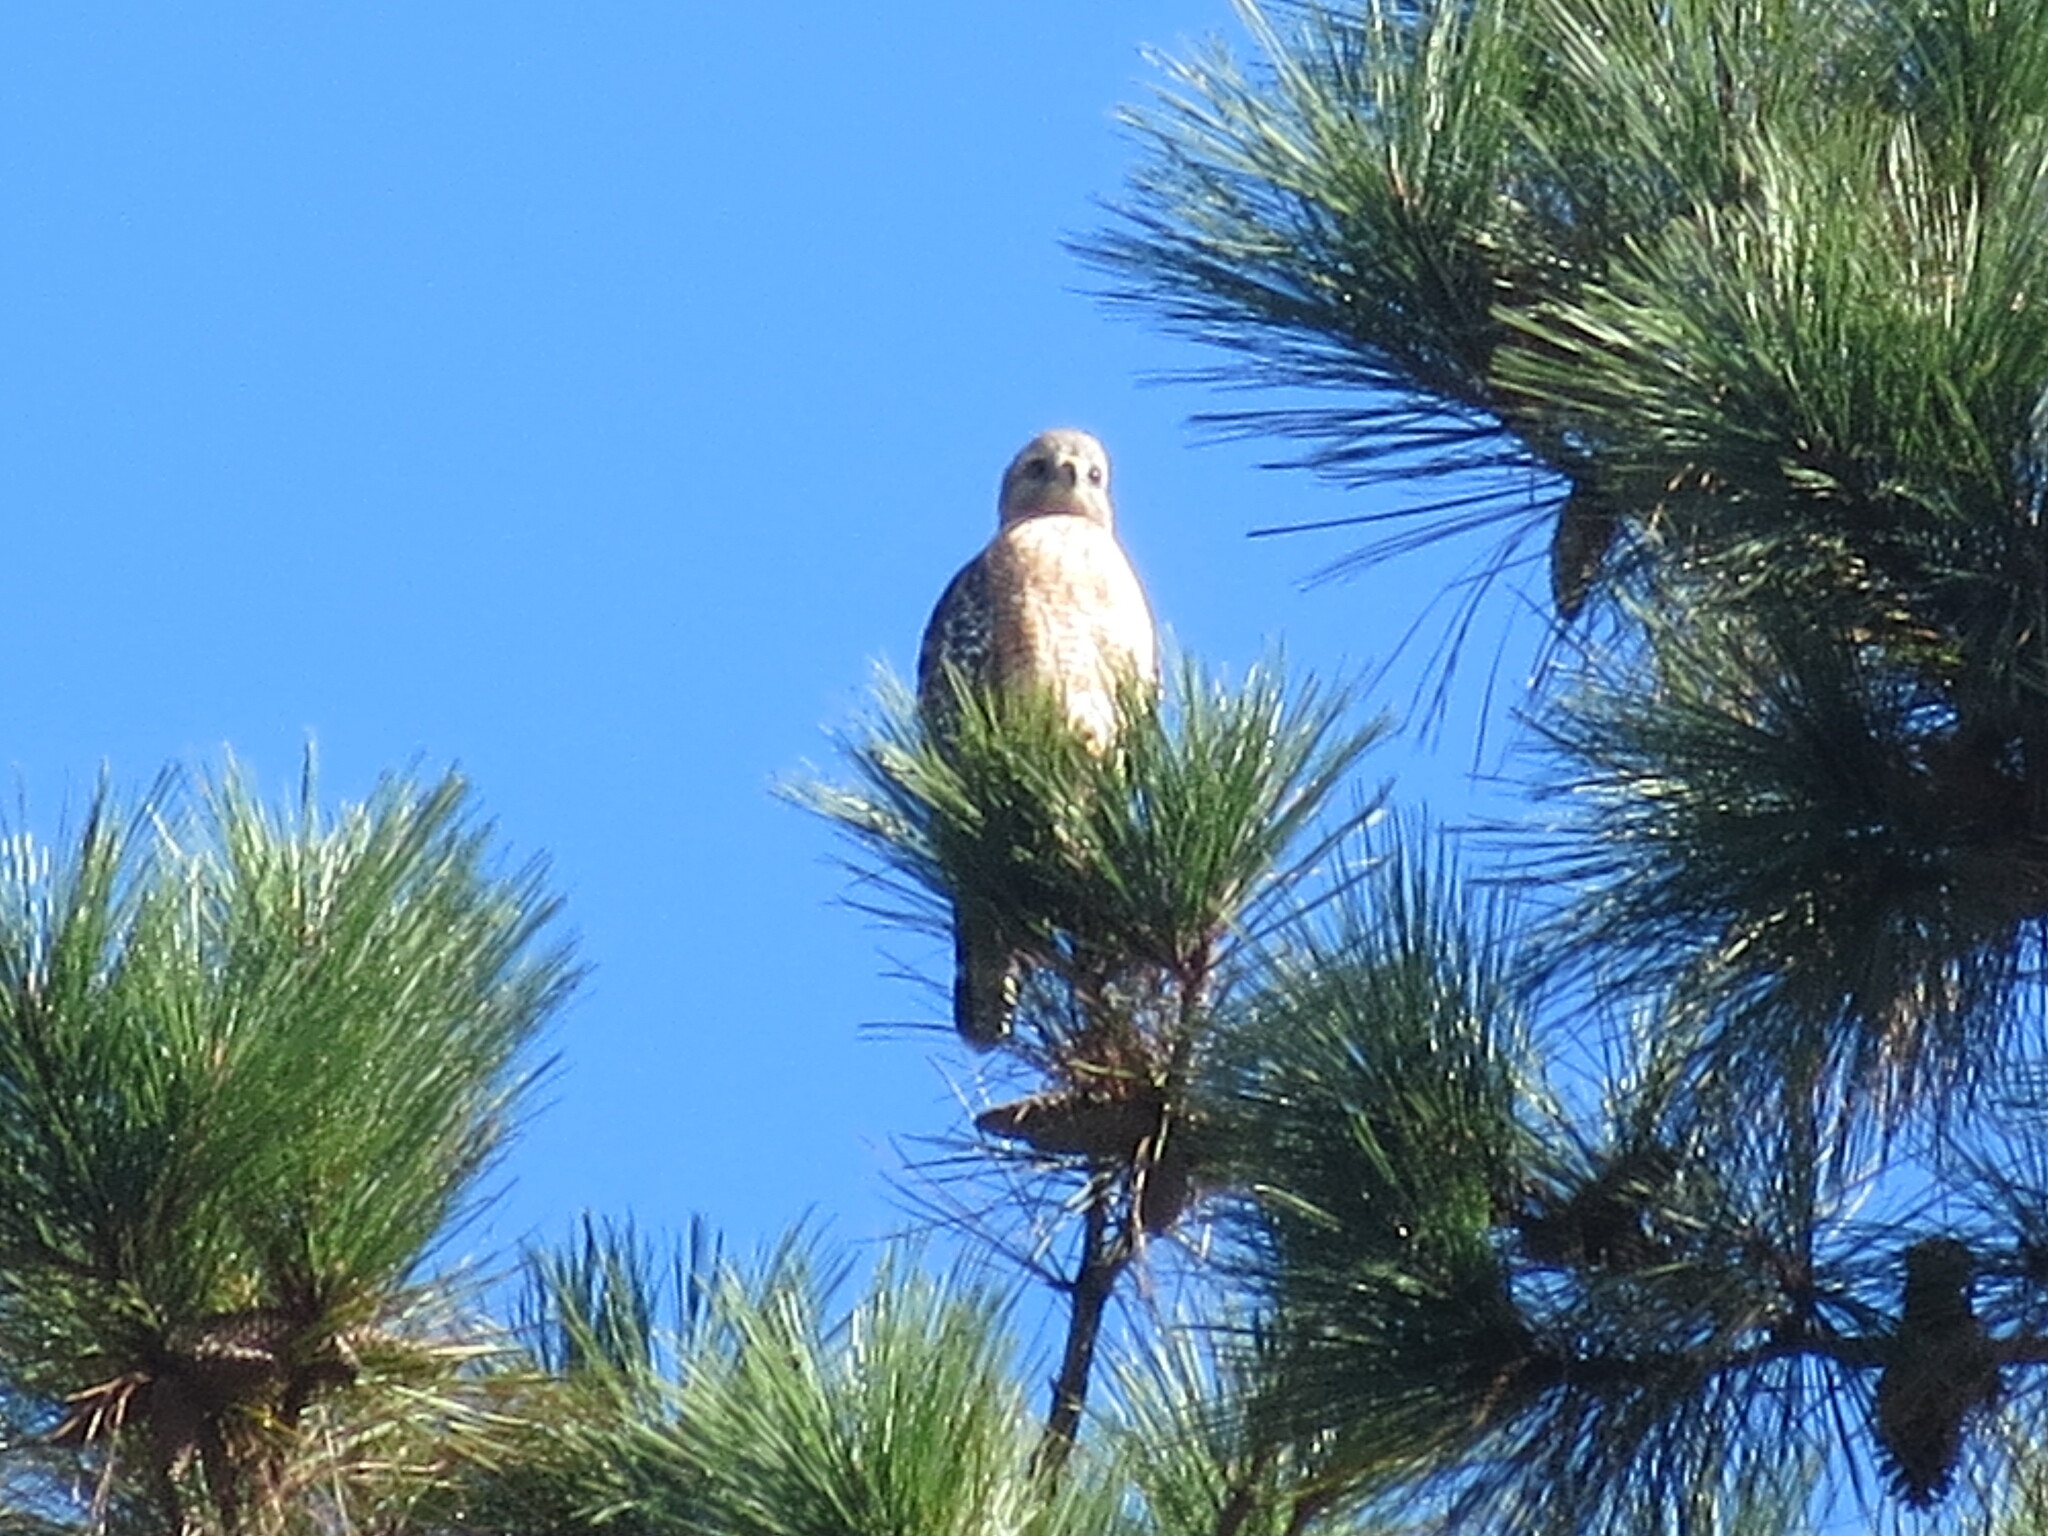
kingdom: Animalia
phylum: Chordata
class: Aves
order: Accipitriformes
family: Accipitridae
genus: Buteo
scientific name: Buteo lineatus
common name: Red-shouldered hawk
